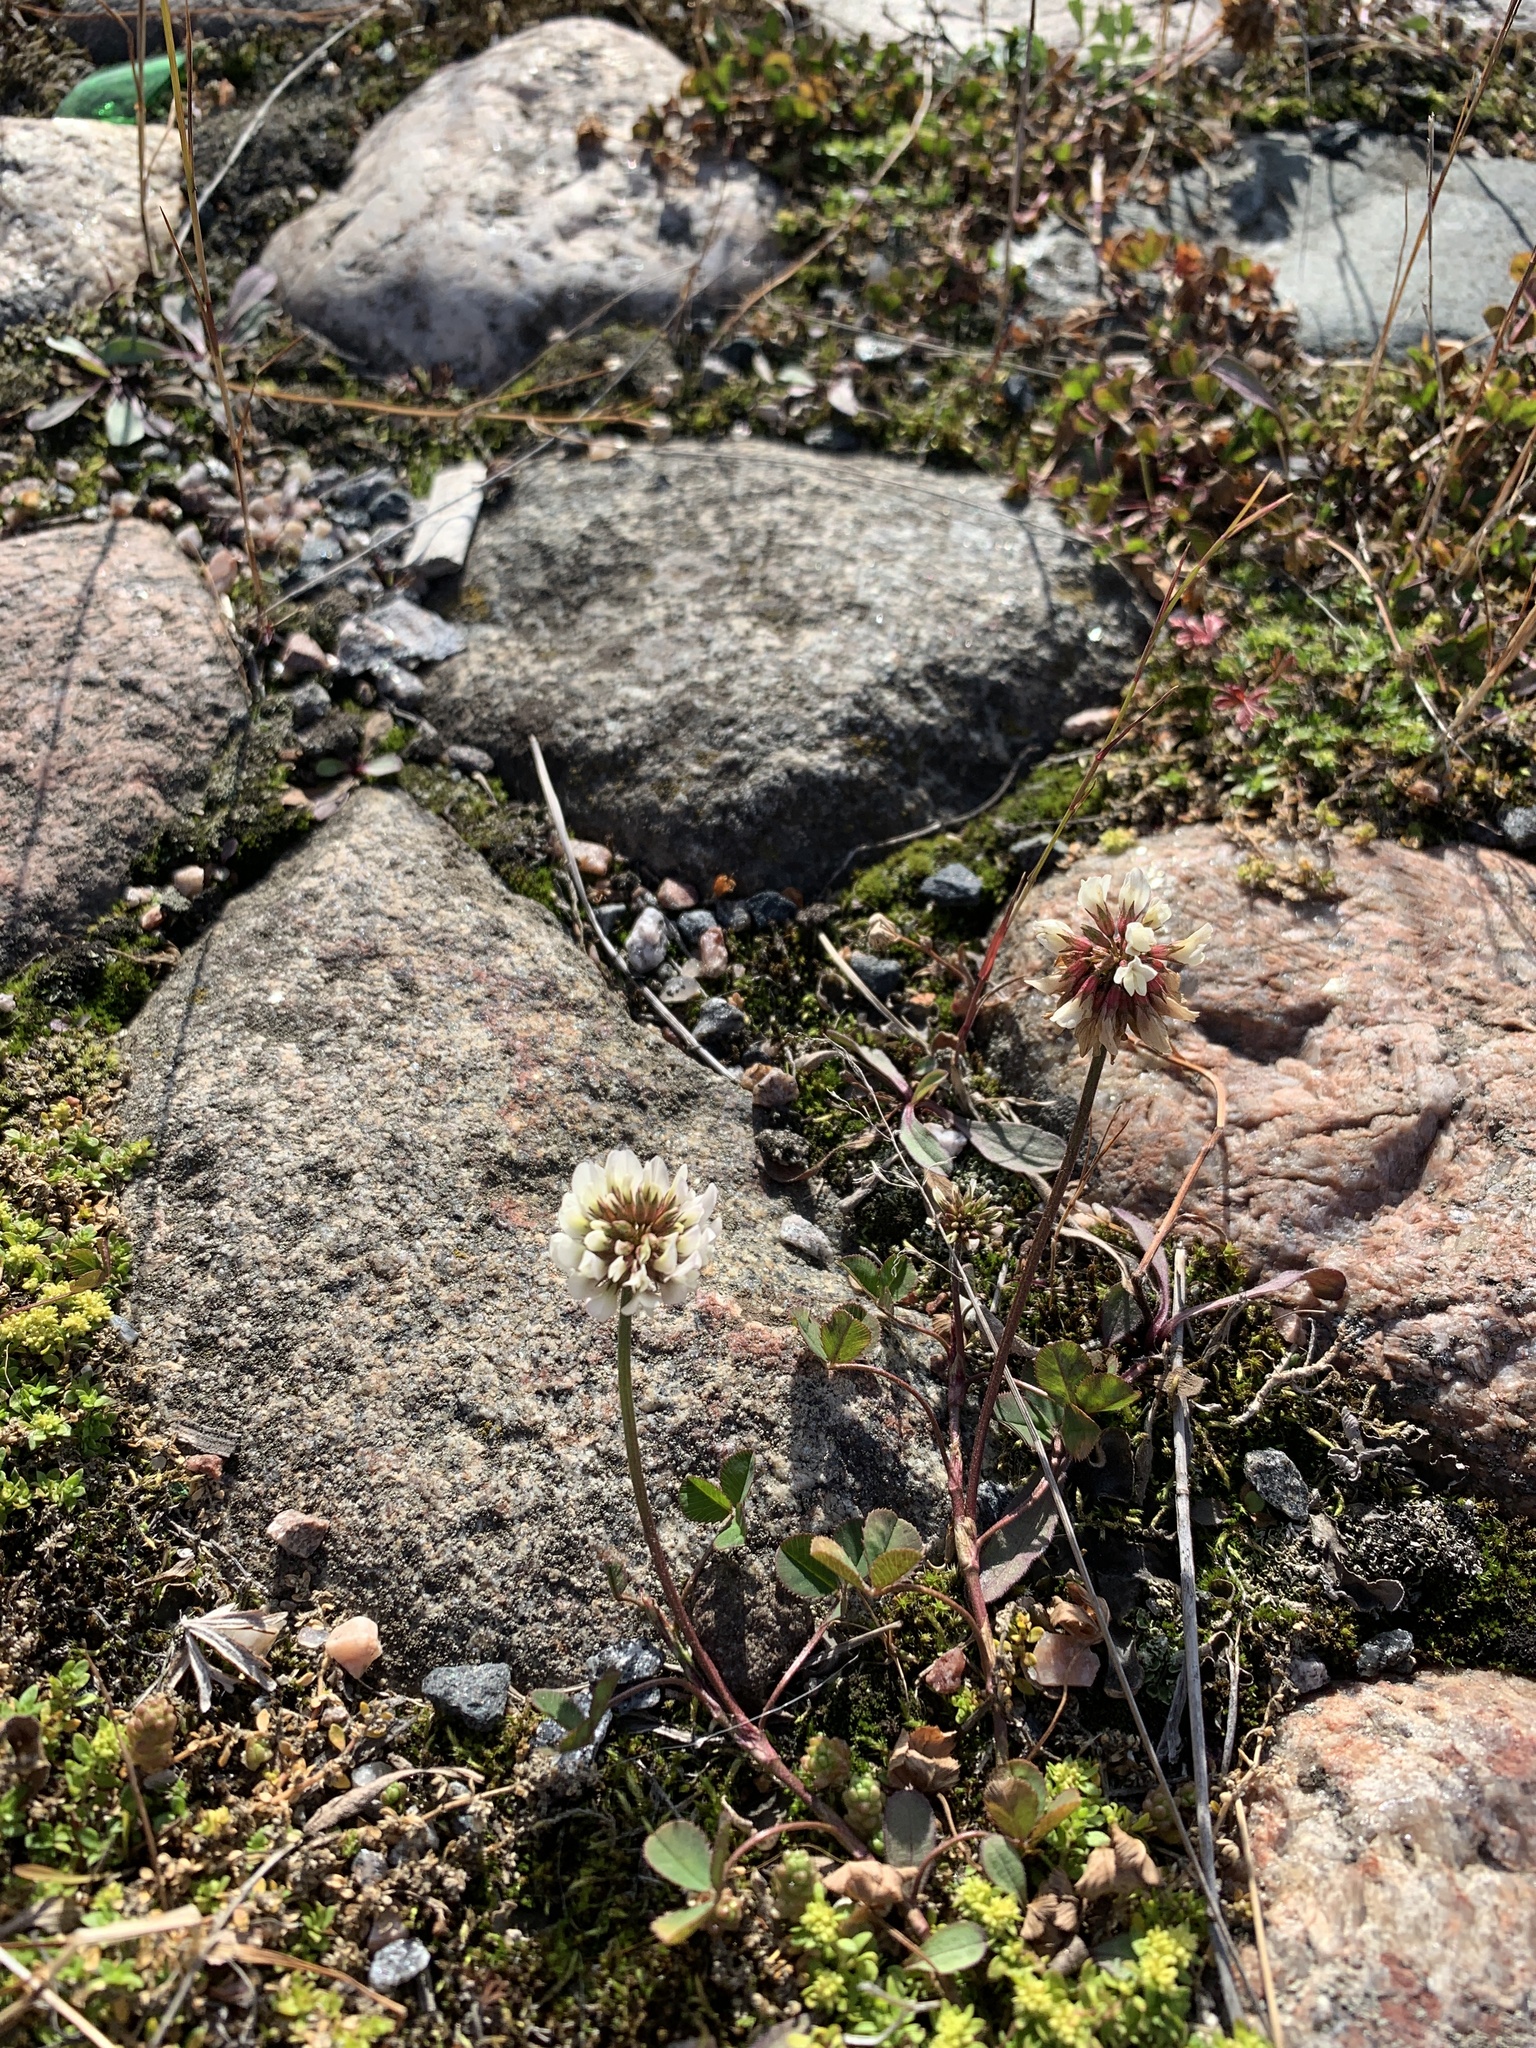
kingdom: Plantae
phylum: Tracheophyta
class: Magnoliopsida
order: Fabales
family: Fabaceae
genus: Trifolium
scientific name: Trifolium repens
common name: White clover
